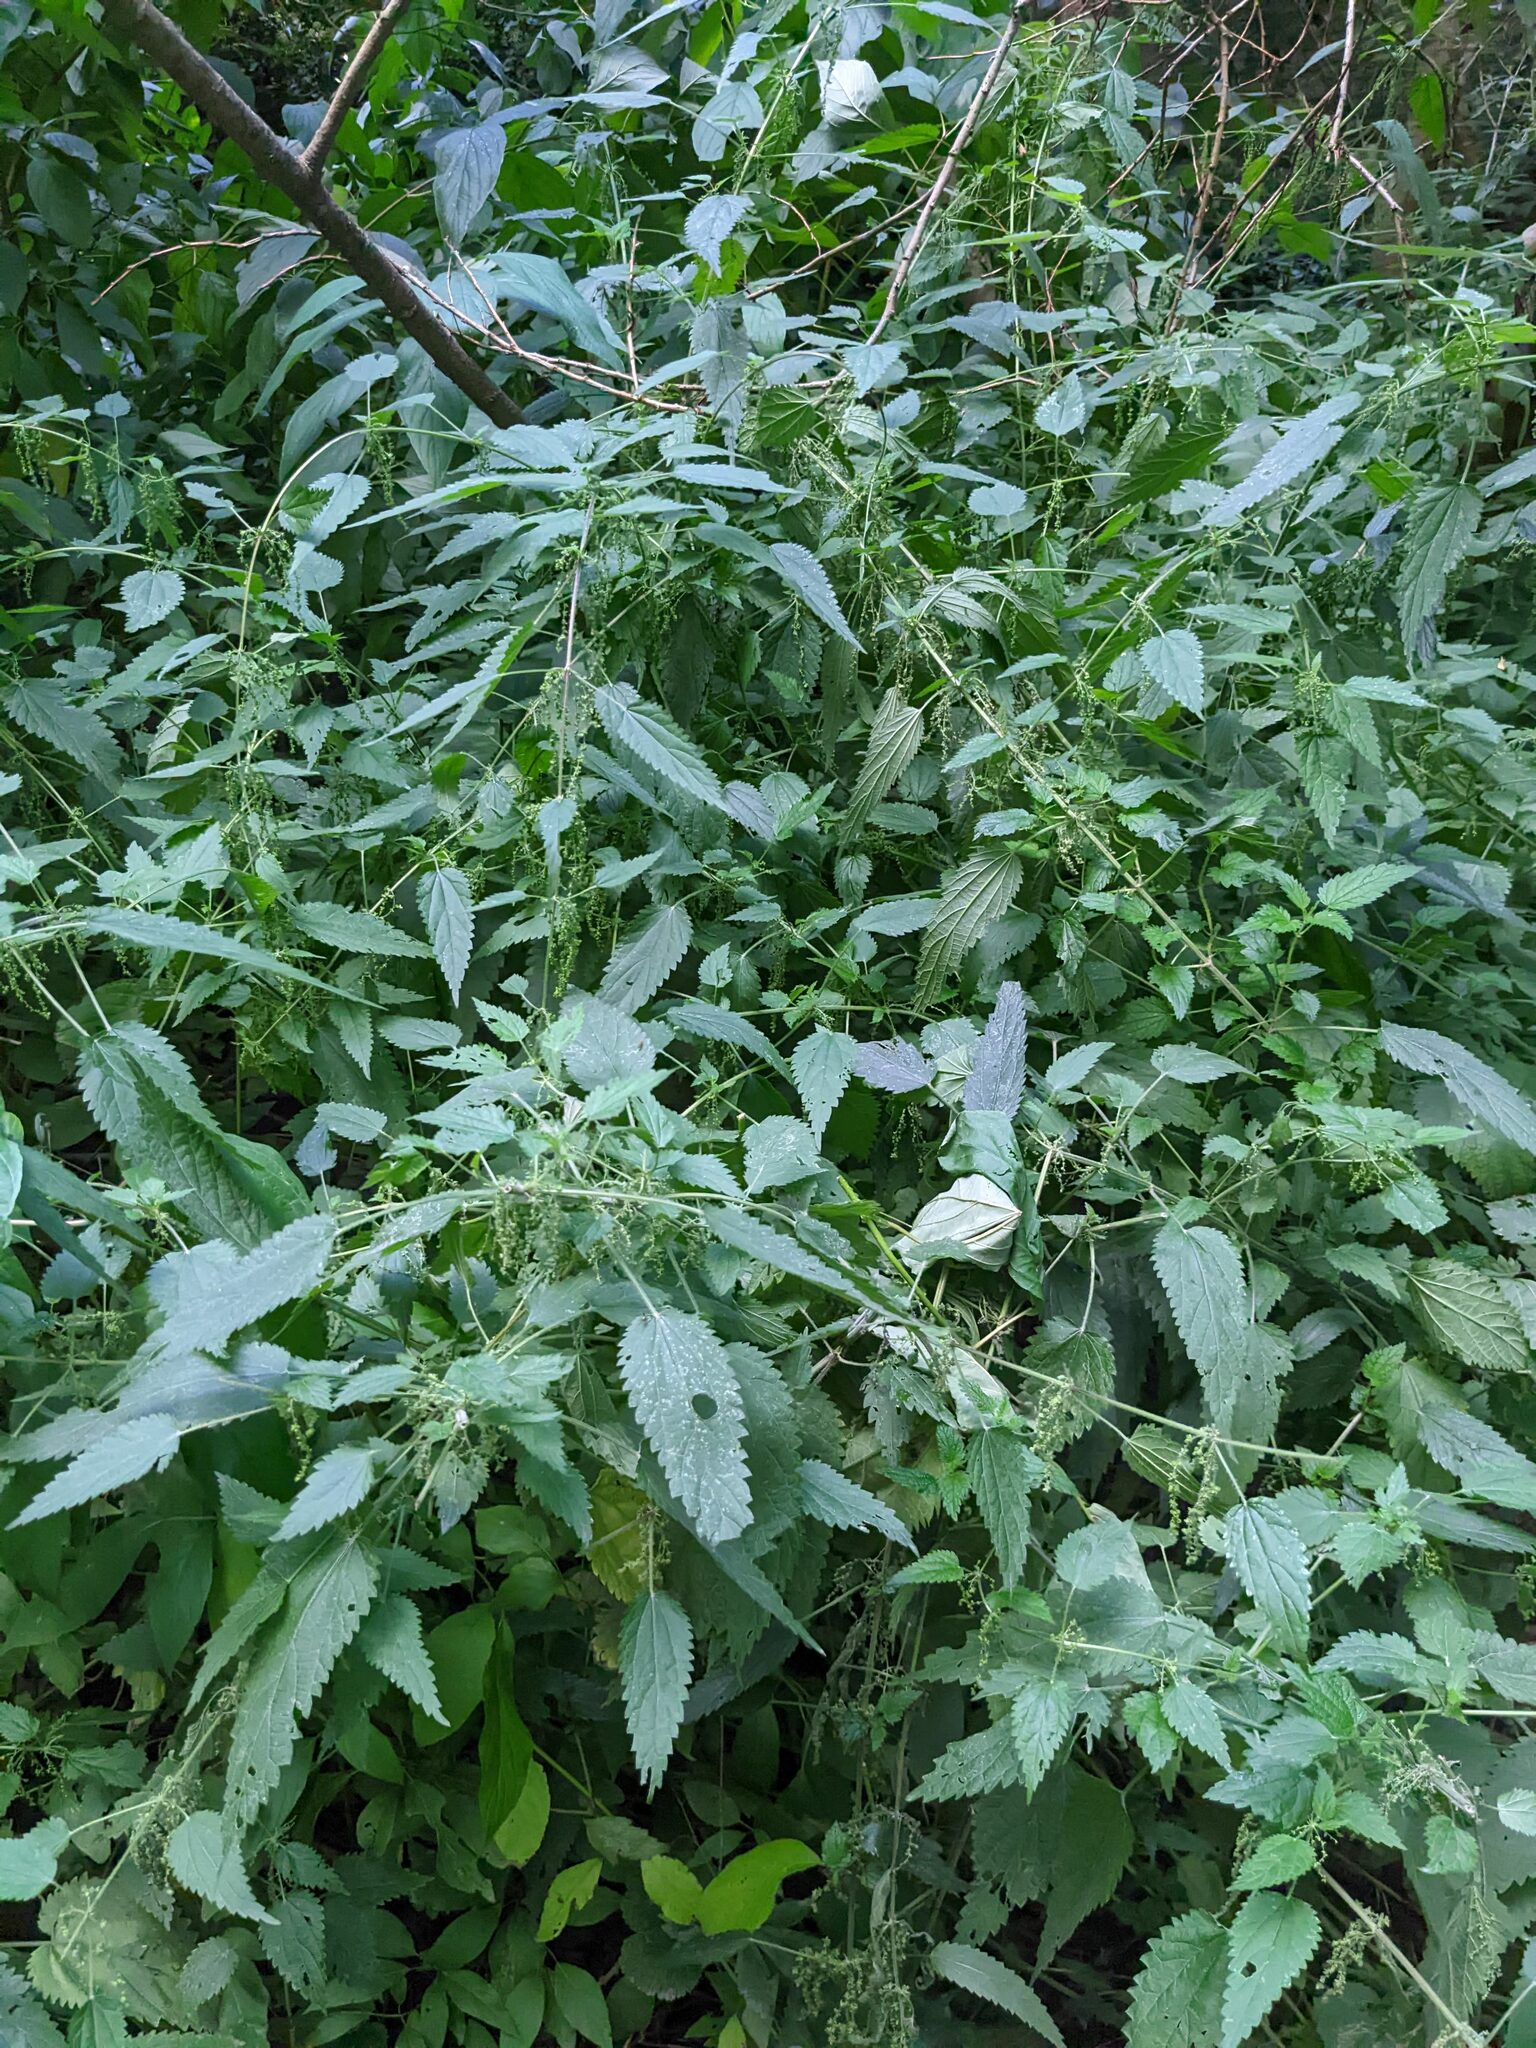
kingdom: Plantae
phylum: Tracheophyta
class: Magnoliopsida
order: Rosales
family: Urticaceae
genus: Urtica
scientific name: Urtica dioica
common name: Common nettle
